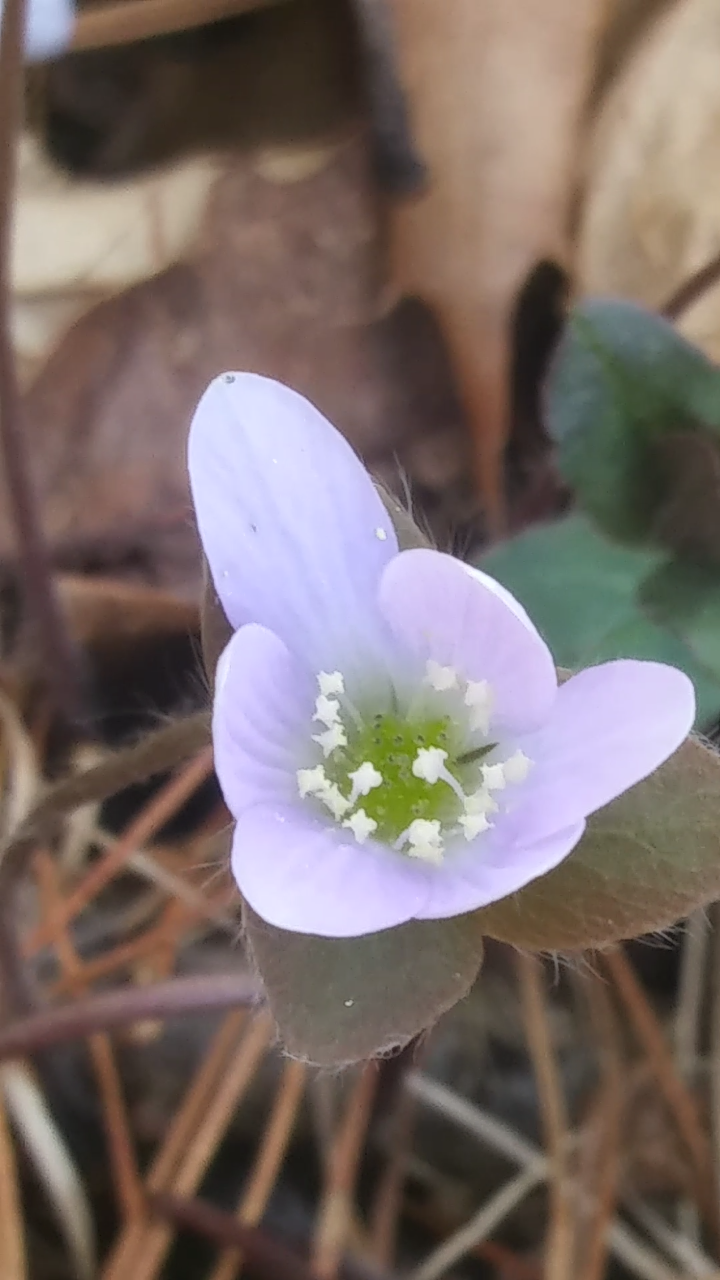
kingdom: Plantae
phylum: Tracheophyta
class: Magnoliopsida
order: Ranunculales
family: Ranunculaceae
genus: Hepatica
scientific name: Hepatica americana
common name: American hepatica
